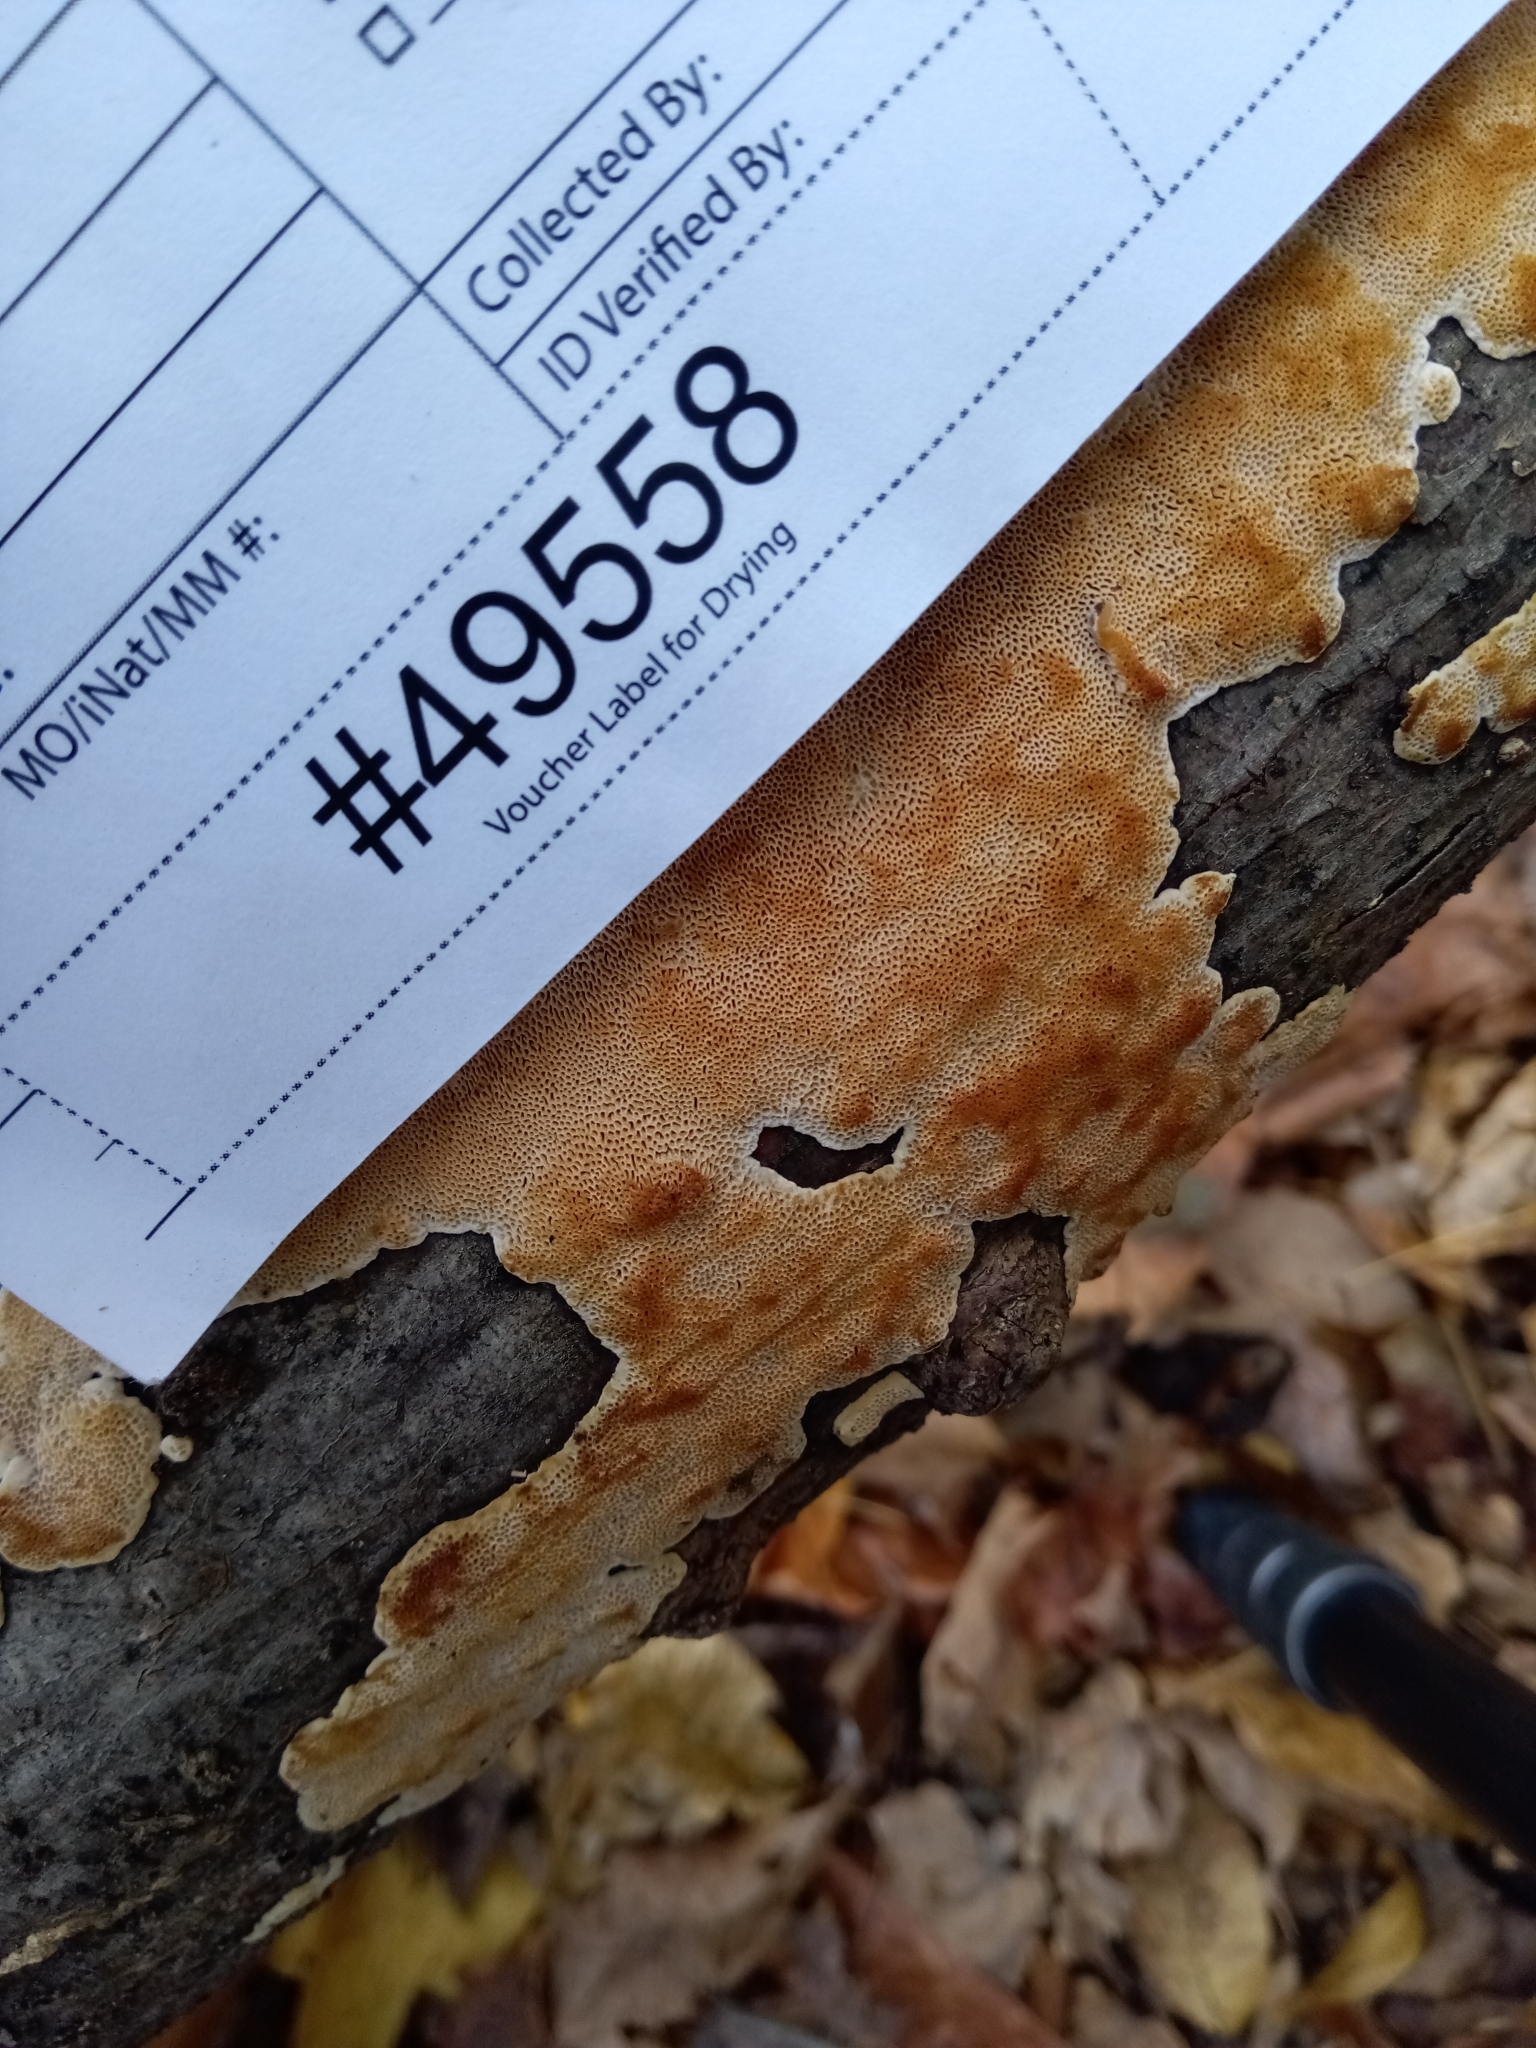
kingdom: Fungi
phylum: Basidiomycota
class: Agaricomycetes
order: Polyporales
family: Fomitopsidaceae
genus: Fomitopsis
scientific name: Fomitopsis
